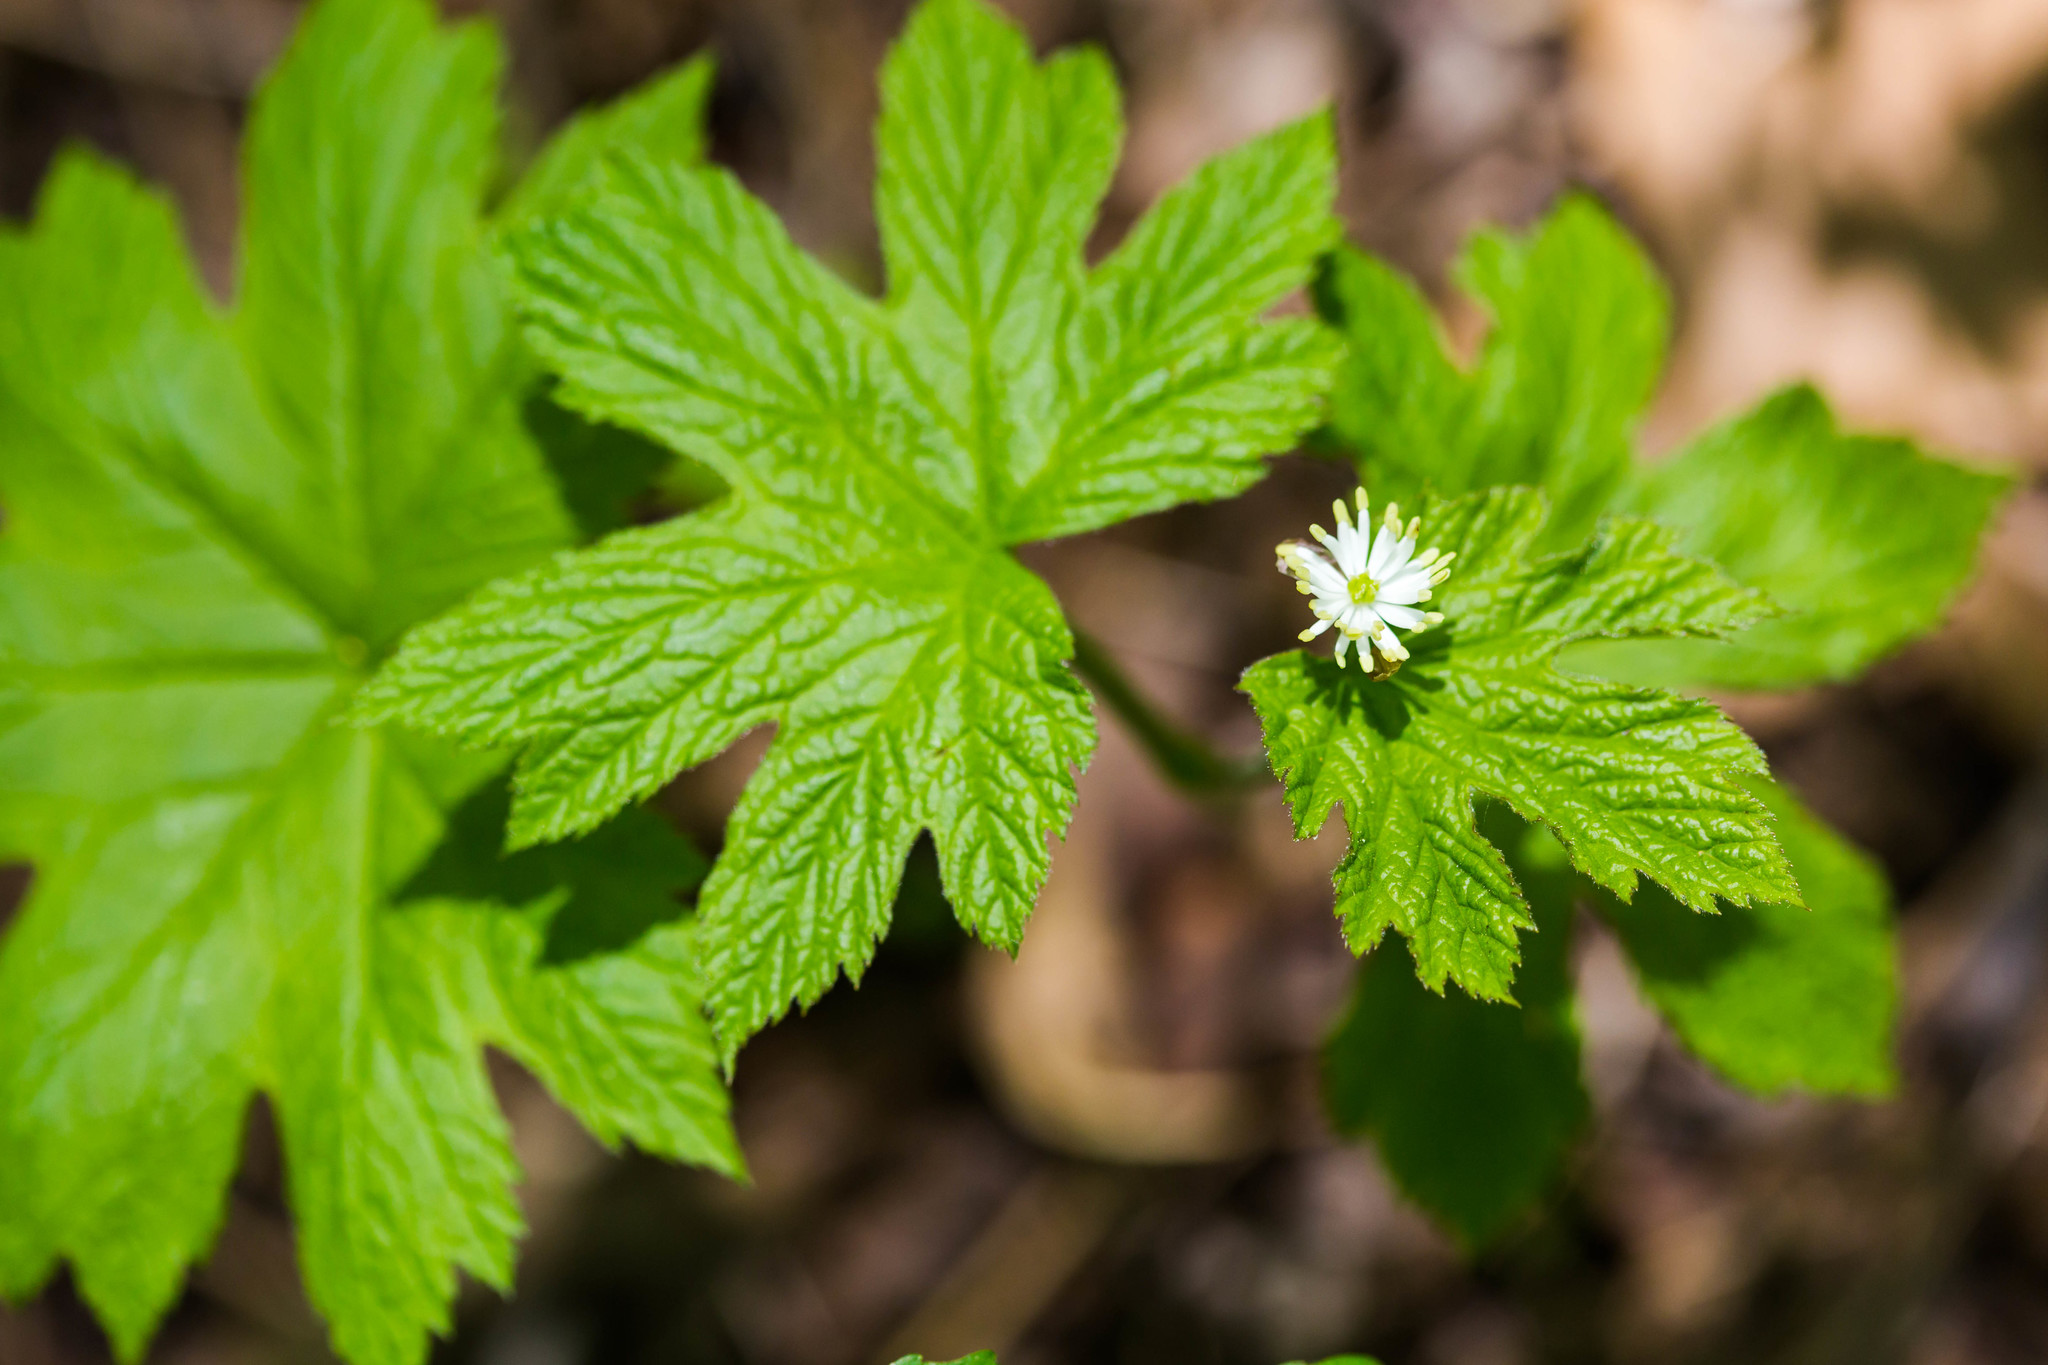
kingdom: Plantae
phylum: Tracheophyta
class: Magnoliopsida
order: Ranunculales
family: Ranunculaceae
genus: Hydrastis
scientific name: Hydrastis canadensis
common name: Goldenseal
